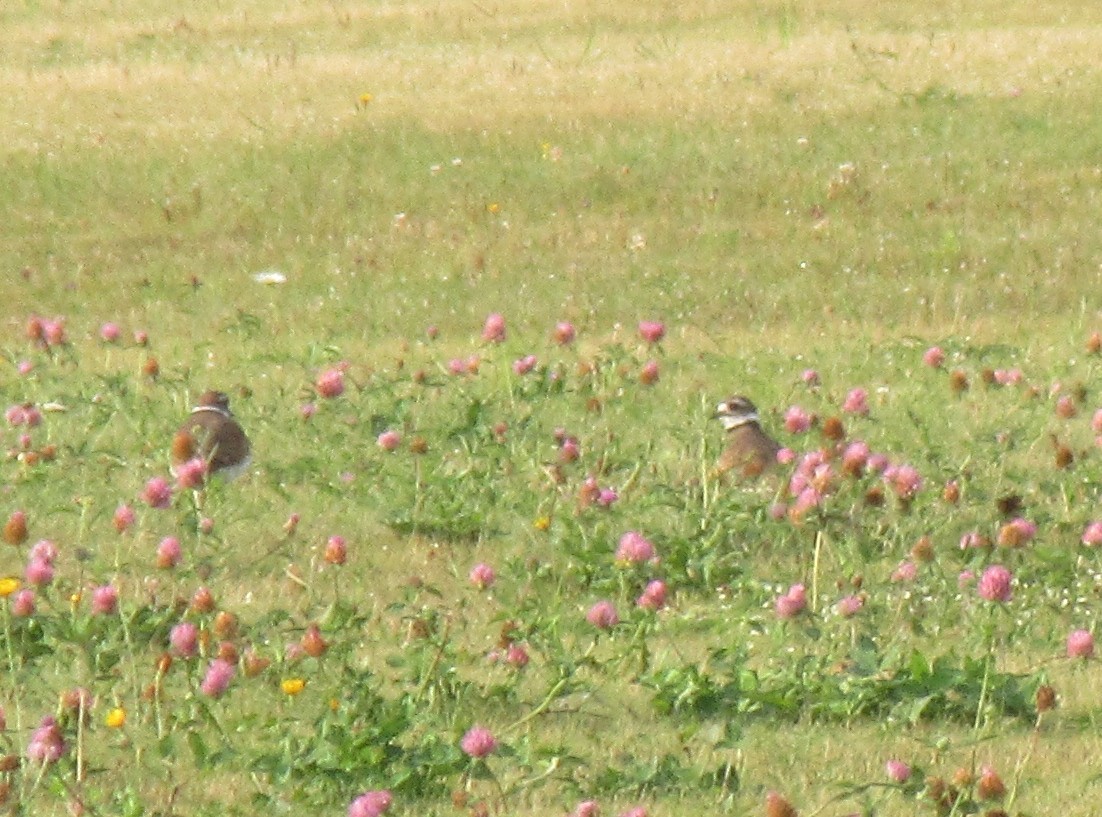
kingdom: Animalia
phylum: Chordata
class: Aves
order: Charadriiformes
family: Charadriidae
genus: Charadrius
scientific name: Charadrius vociferus
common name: Killdeer
